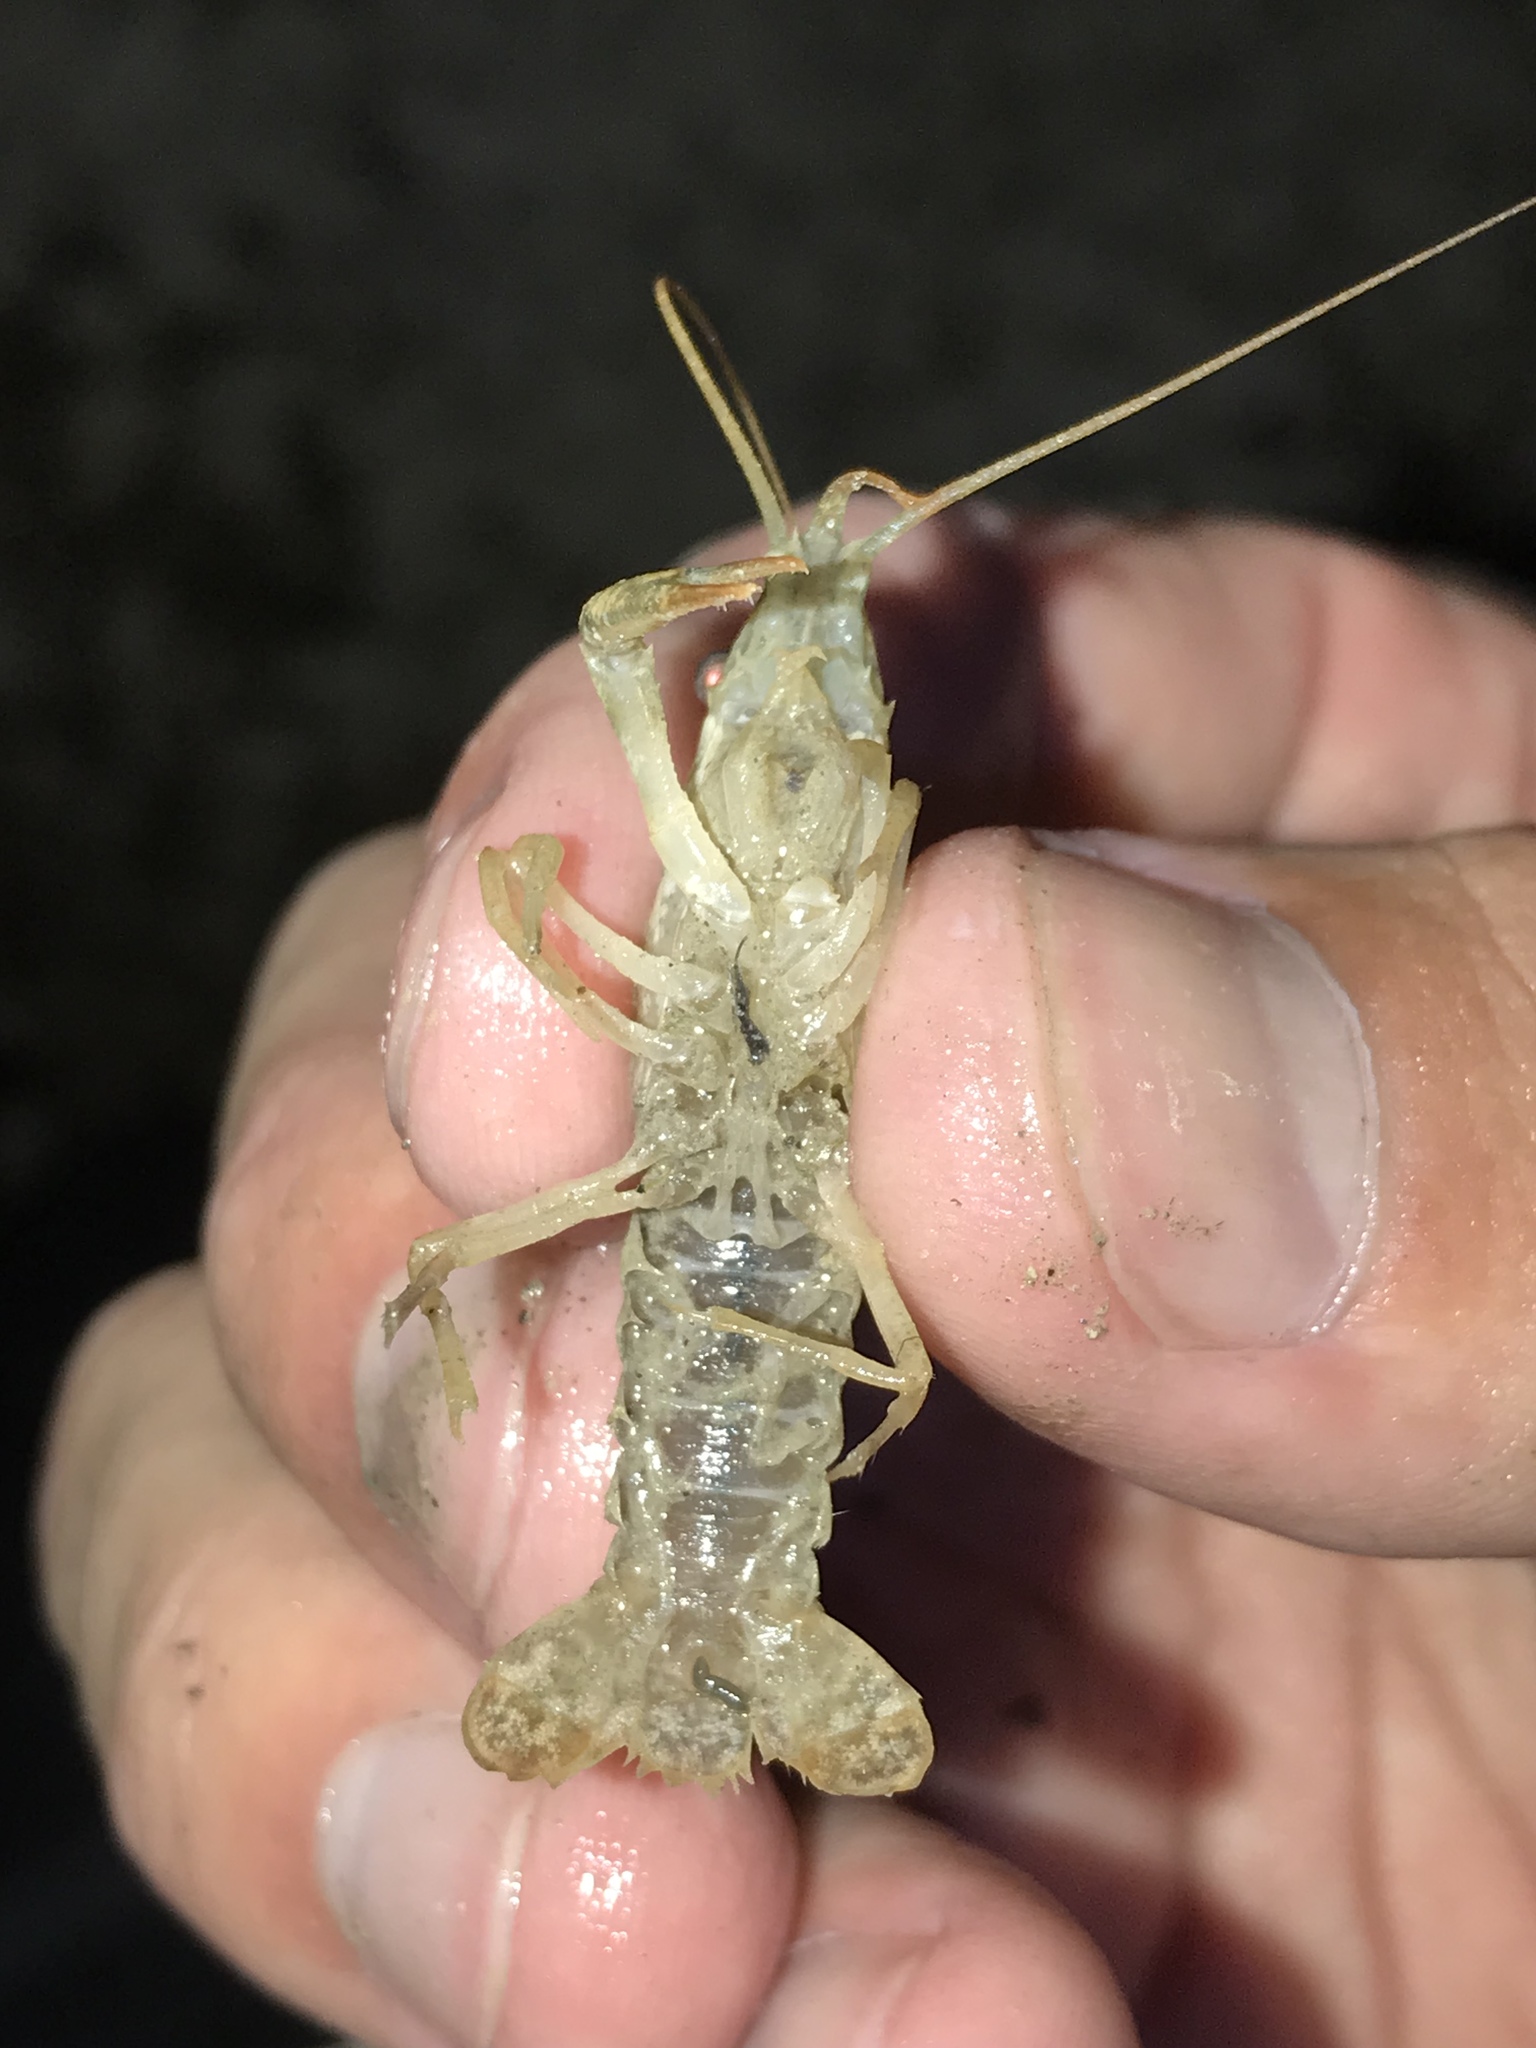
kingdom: Animalia
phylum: Arthropoda
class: Malacostraca
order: Decapoda
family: Cambaridae
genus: Procambarus
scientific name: Procambarus clarkii
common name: Red swamp crayfish
